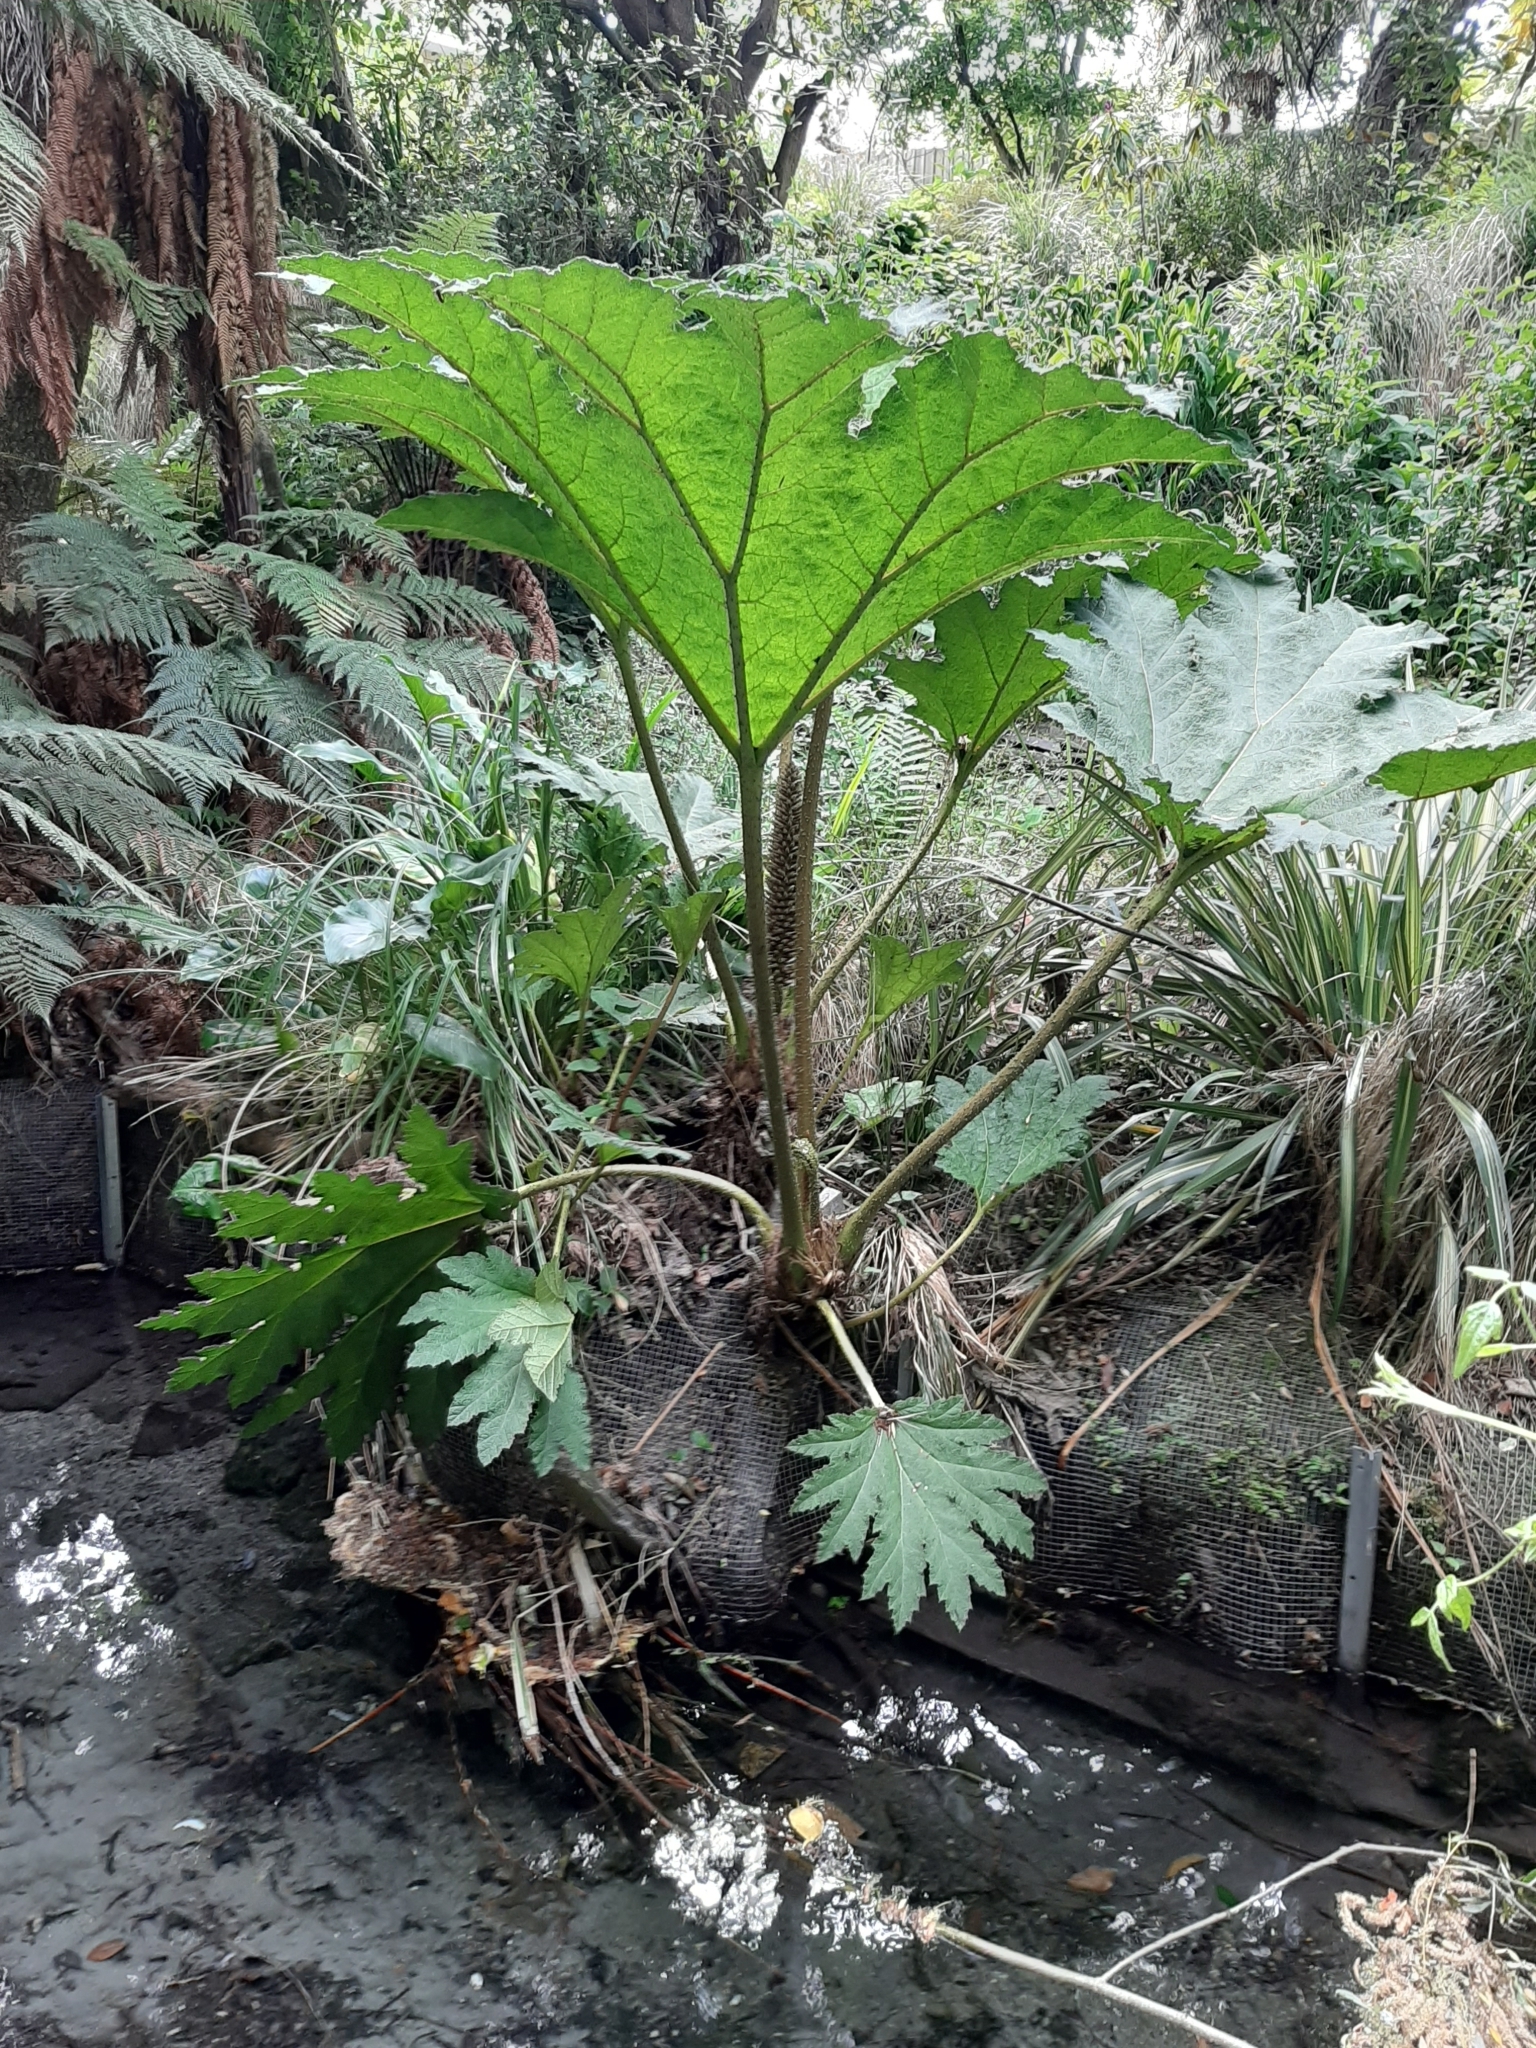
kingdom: Plantae
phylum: Tracheophyta
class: Magnoliopsida
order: Gunnerales
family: Gunneraceae
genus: Gunnera
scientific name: Gunnera tinctoria
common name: Giant-rhubarb
